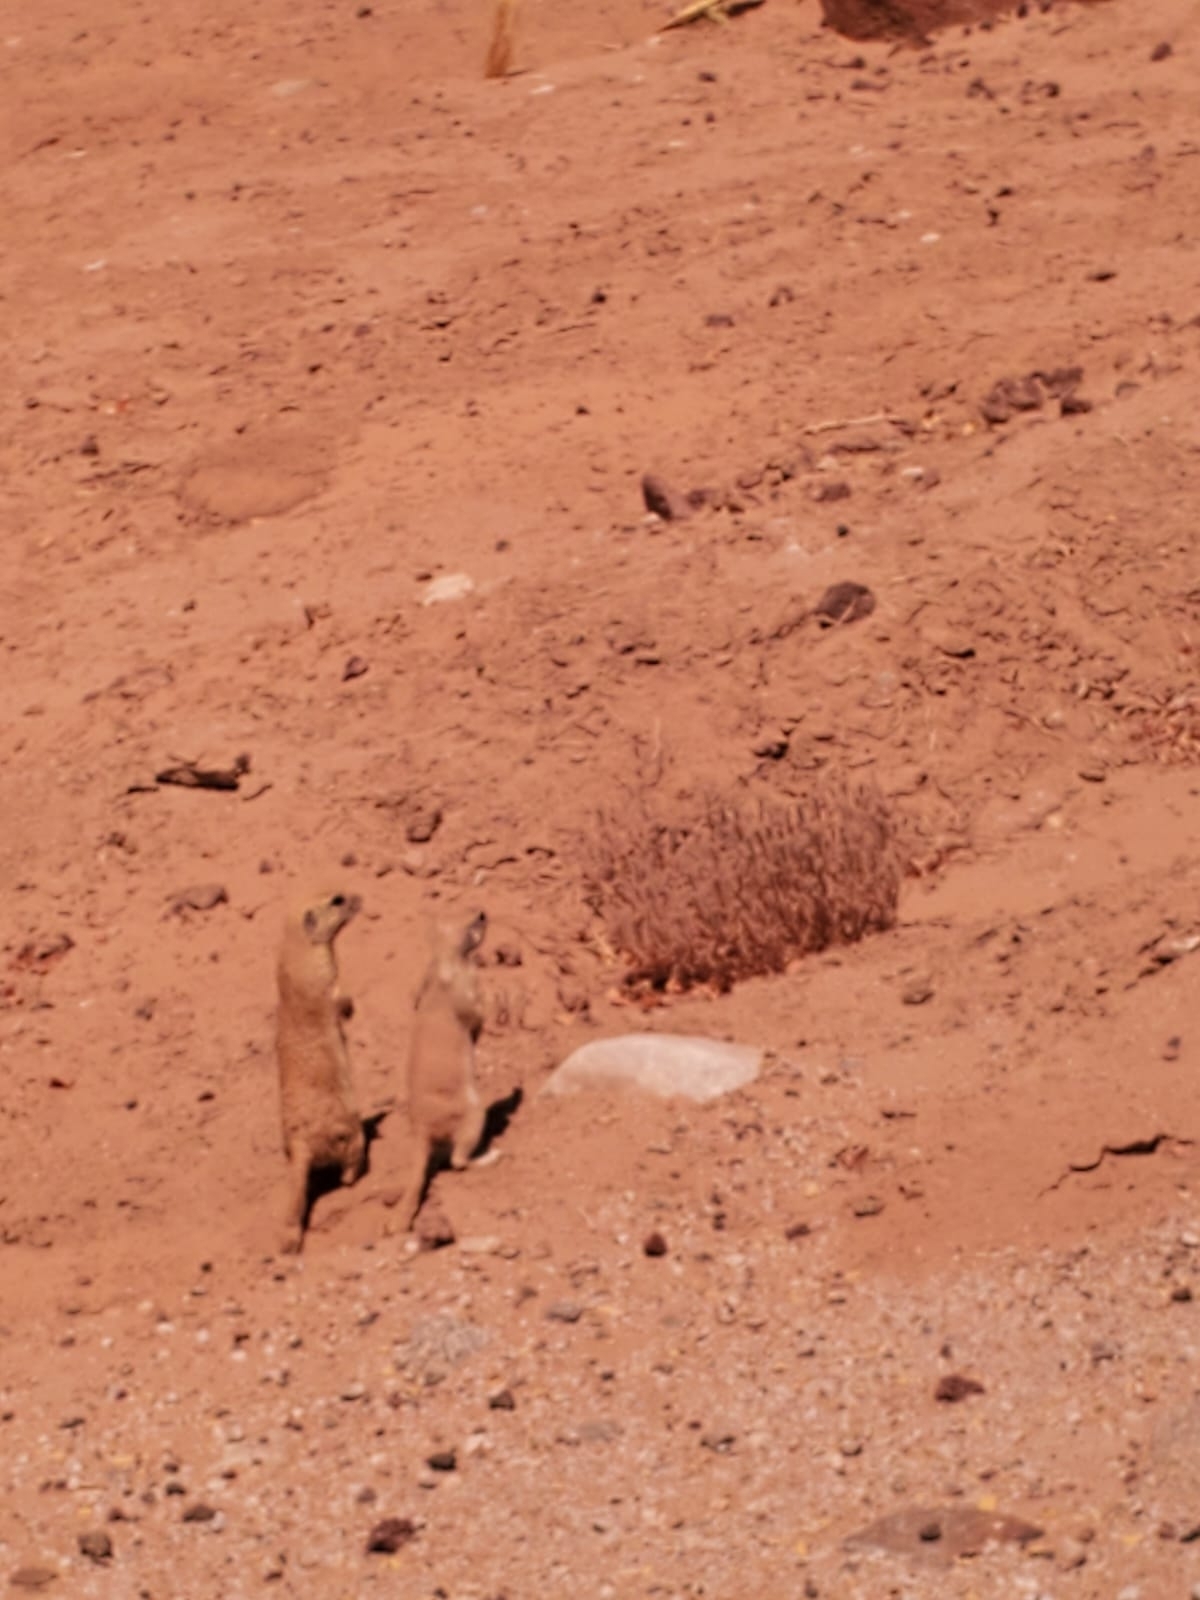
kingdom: Animalia
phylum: Chordata
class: Mammalia
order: Rodentia
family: Sciuridae
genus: Xerospermophilus
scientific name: Xerospermophilus tereticaudus
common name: Round-tailed ground squirrel
